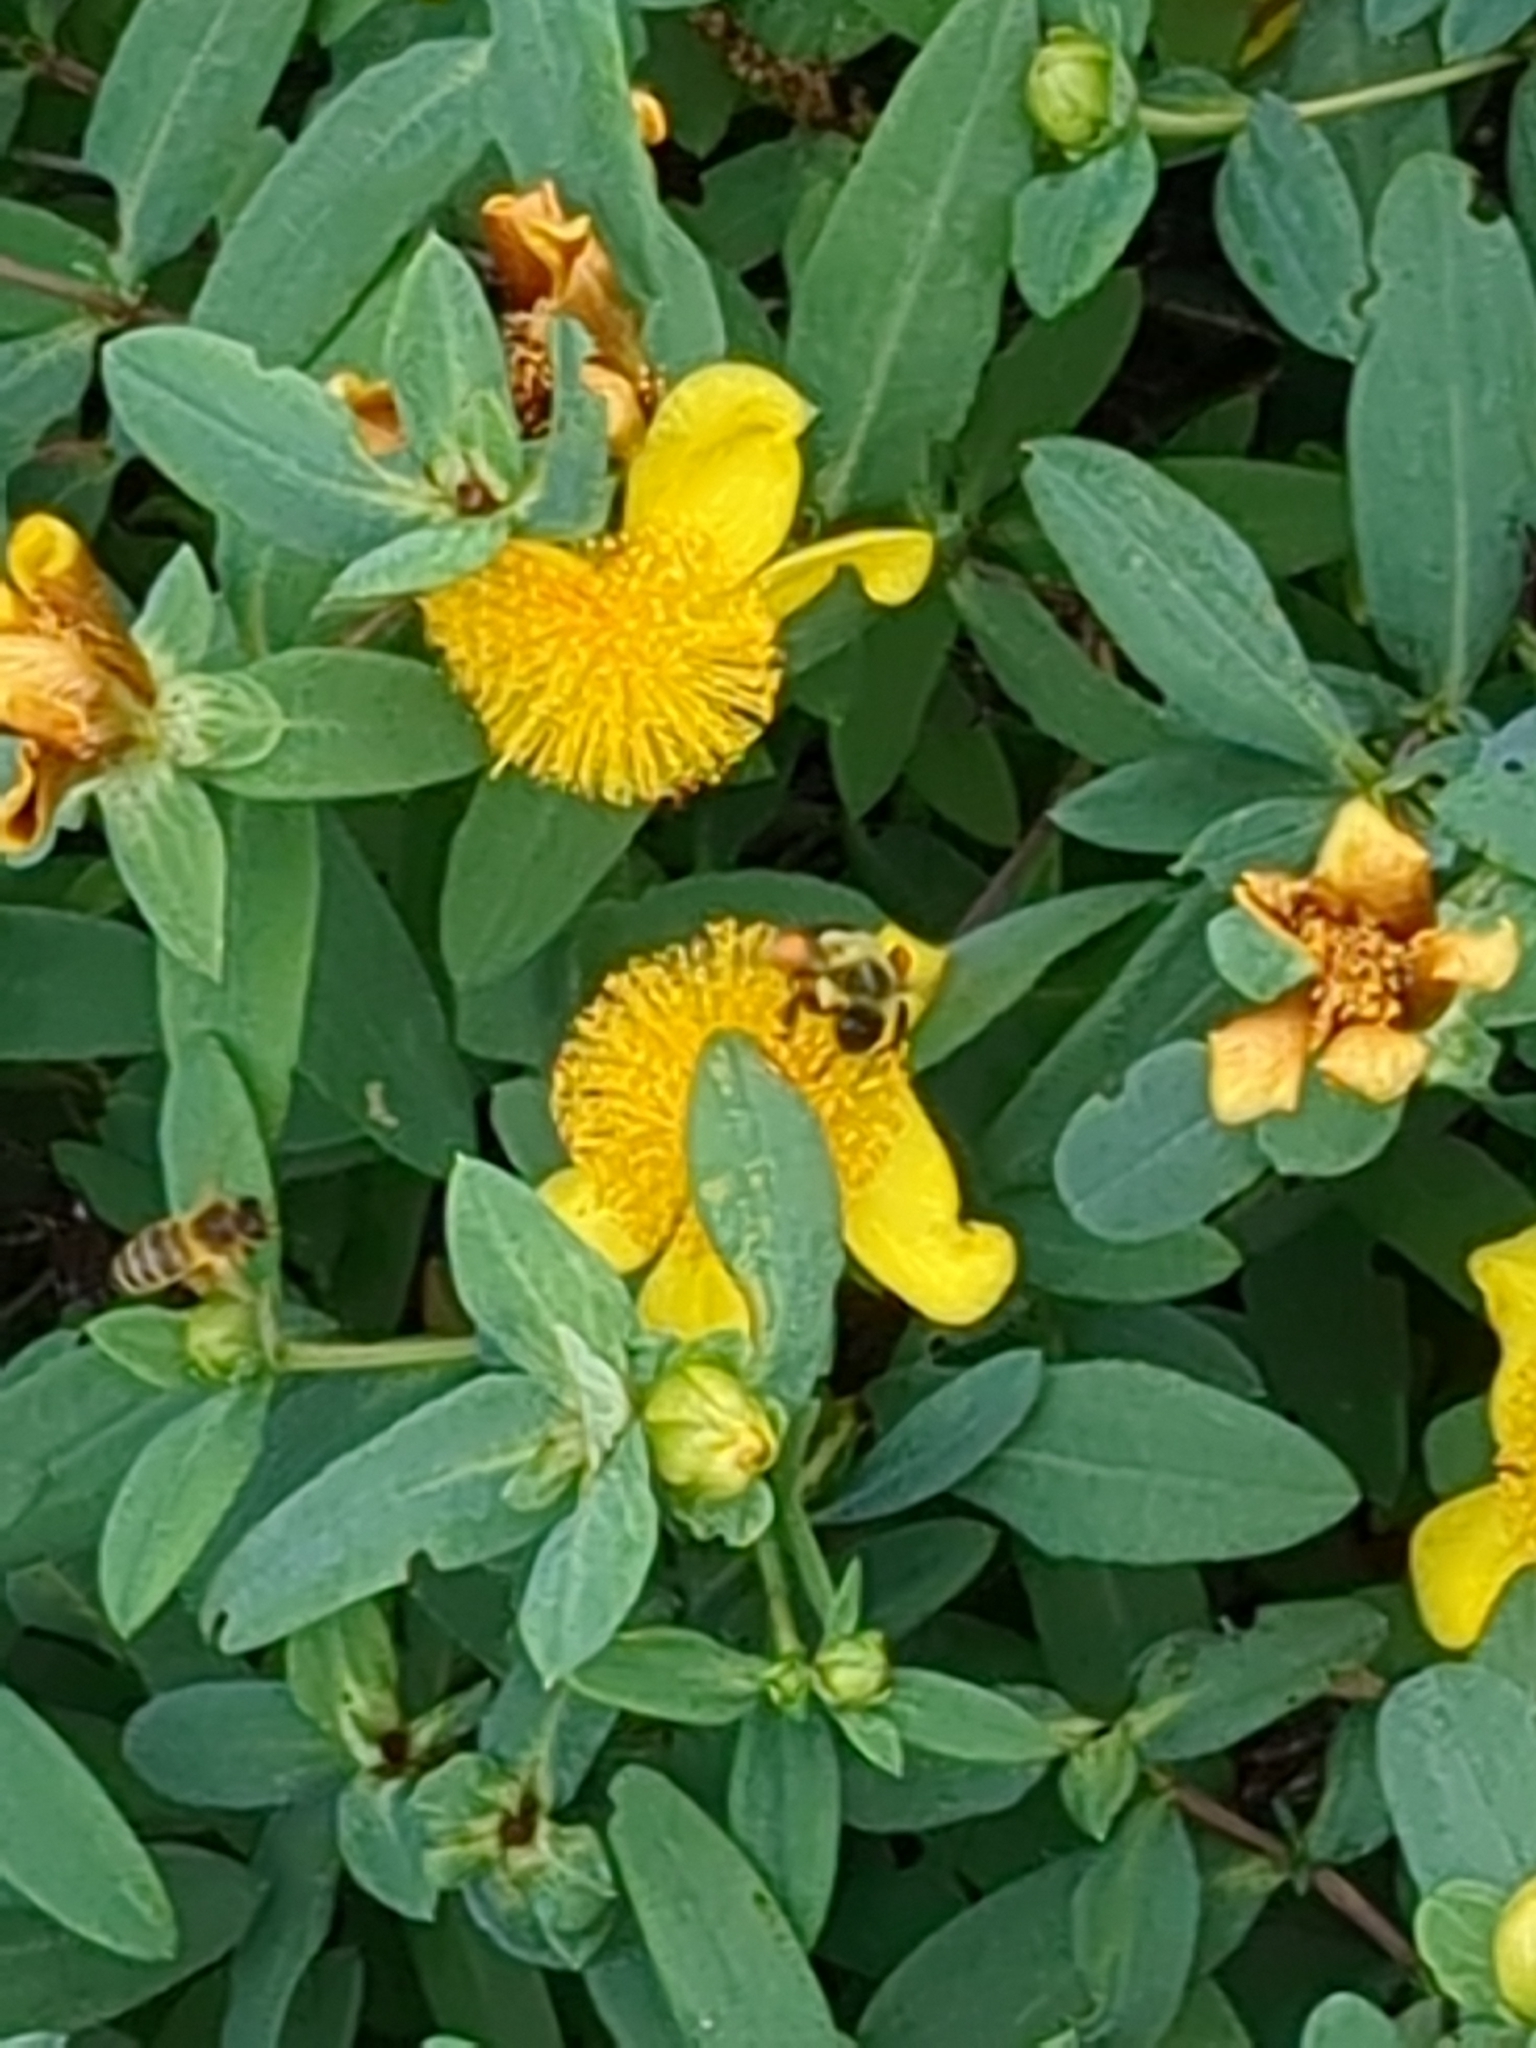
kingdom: Animalia
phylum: Arthropoda
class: Insecta
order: Hymenoptera
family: Apidae
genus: Bombus
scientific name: Bombus impatiens
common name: Common eastern bumble bee
